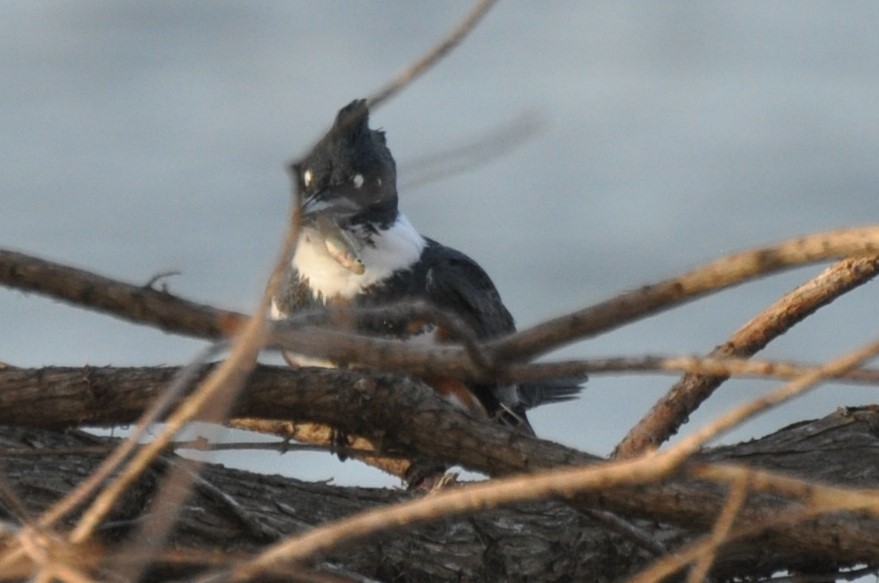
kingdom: Animalia
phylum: Chordata
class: Aves
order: Coraciiformes
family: Alcedinidae
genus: Megaceryle
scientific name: Megaceryle alcyon
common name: Belted kingfisher
